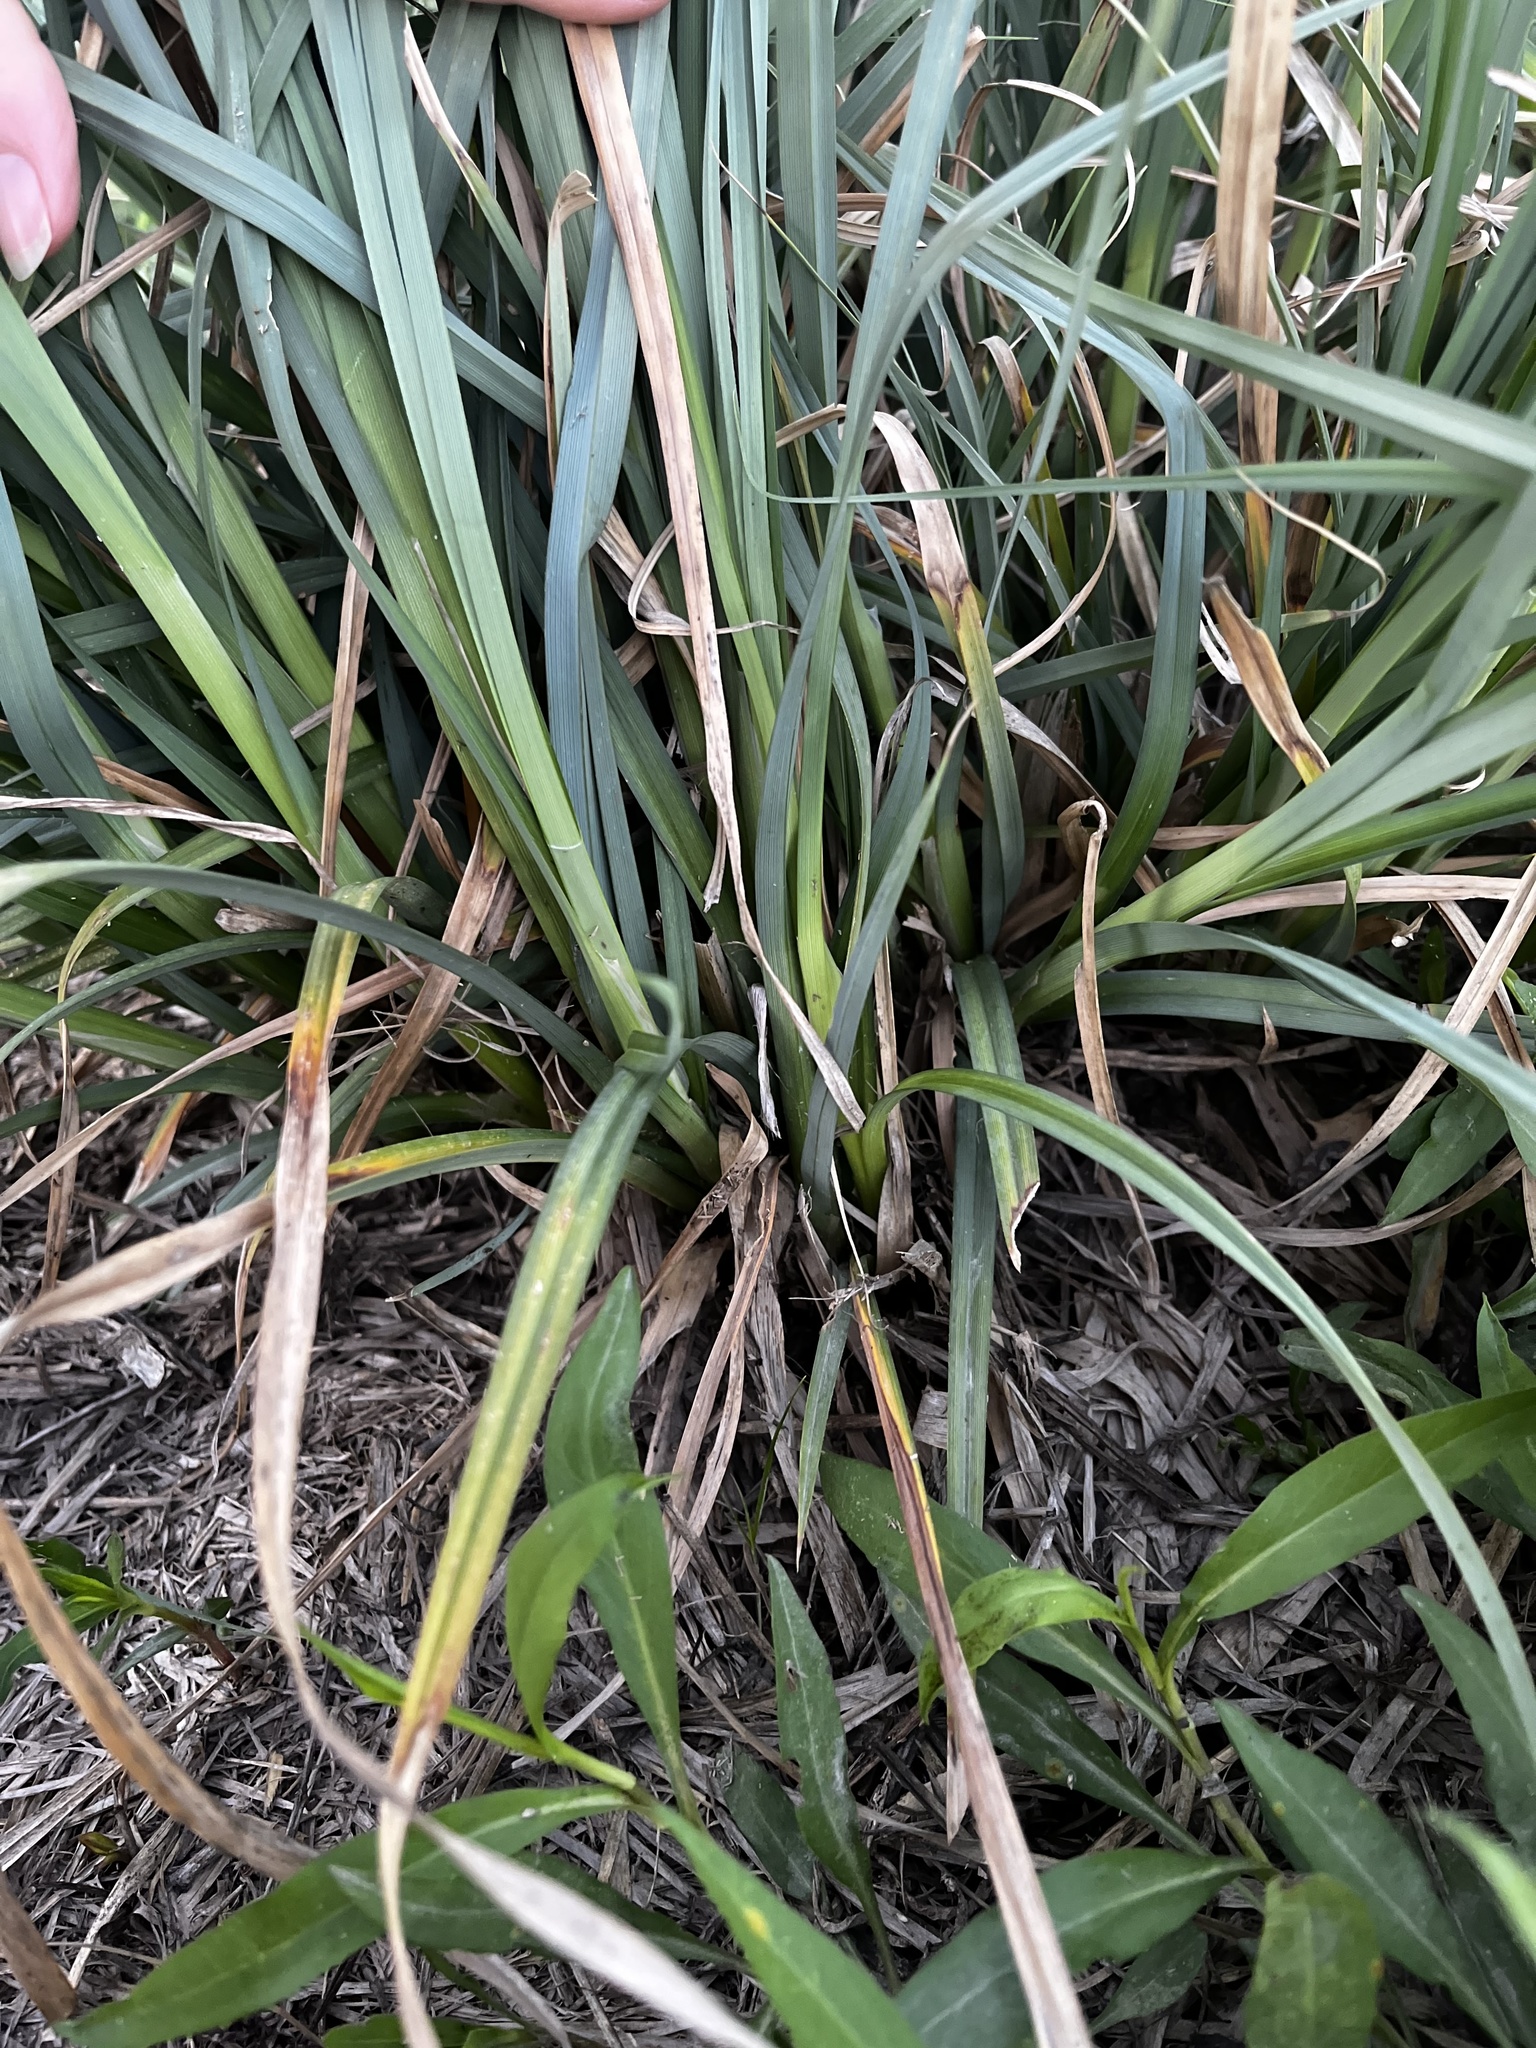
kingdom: Plantae
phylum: Tracheophyta
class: Liliopsida
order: Poales
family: Cyperaceae
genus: Carex
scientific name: Carex crus-corvi
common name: Crow-spur sedge
